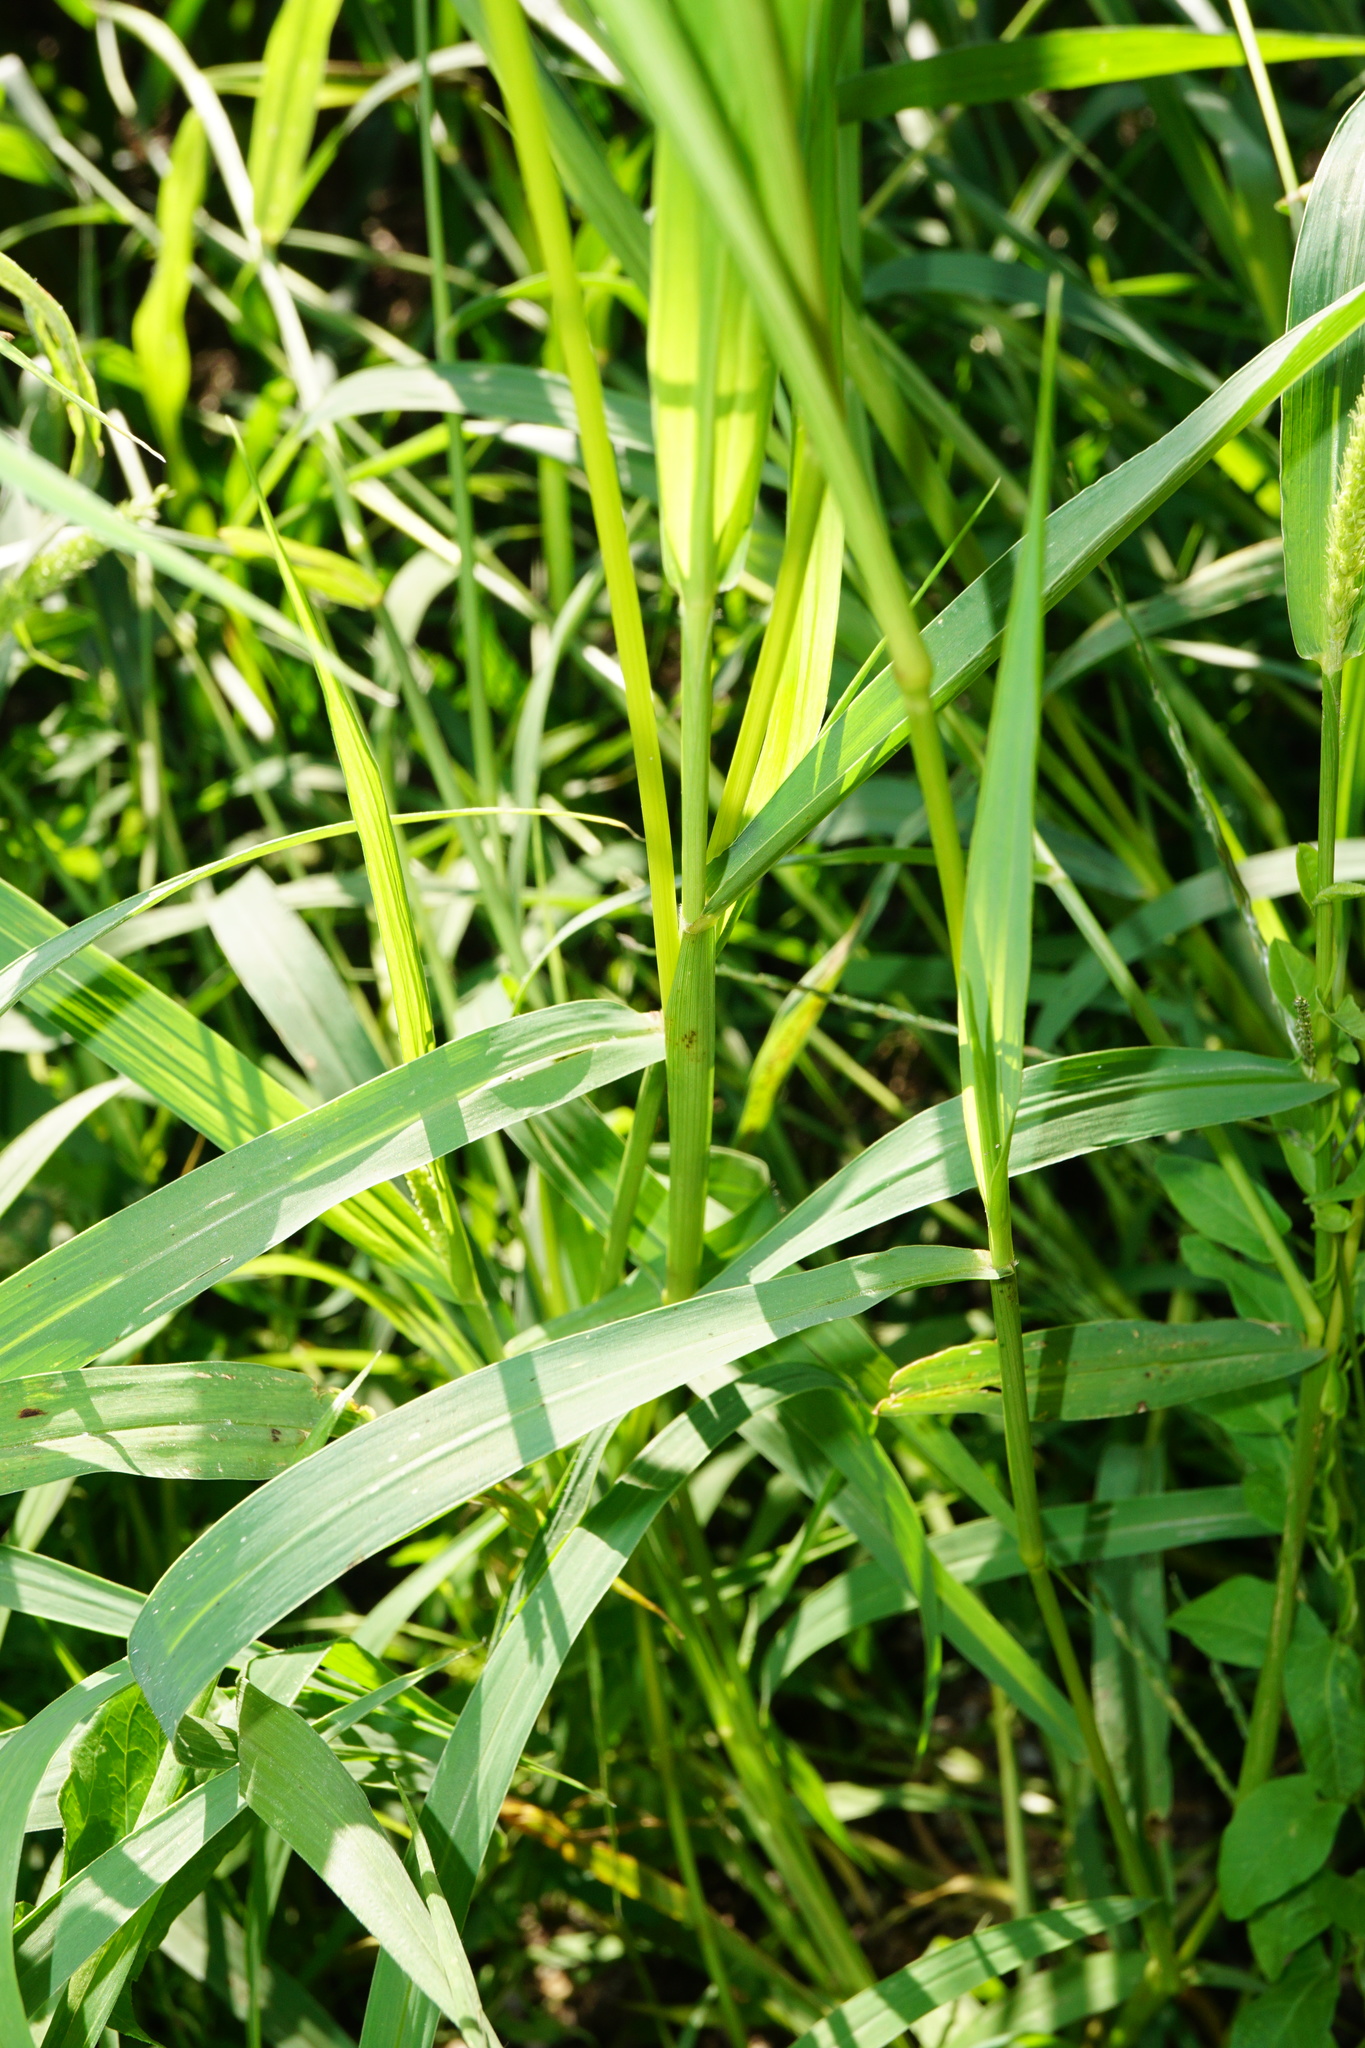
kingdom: Plantae
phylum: Tracheophyta
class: Liliopsida
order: Poales
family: Poaceae
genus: Setaria
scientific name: Setaria verticillata
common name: Hooked bristlegrass
